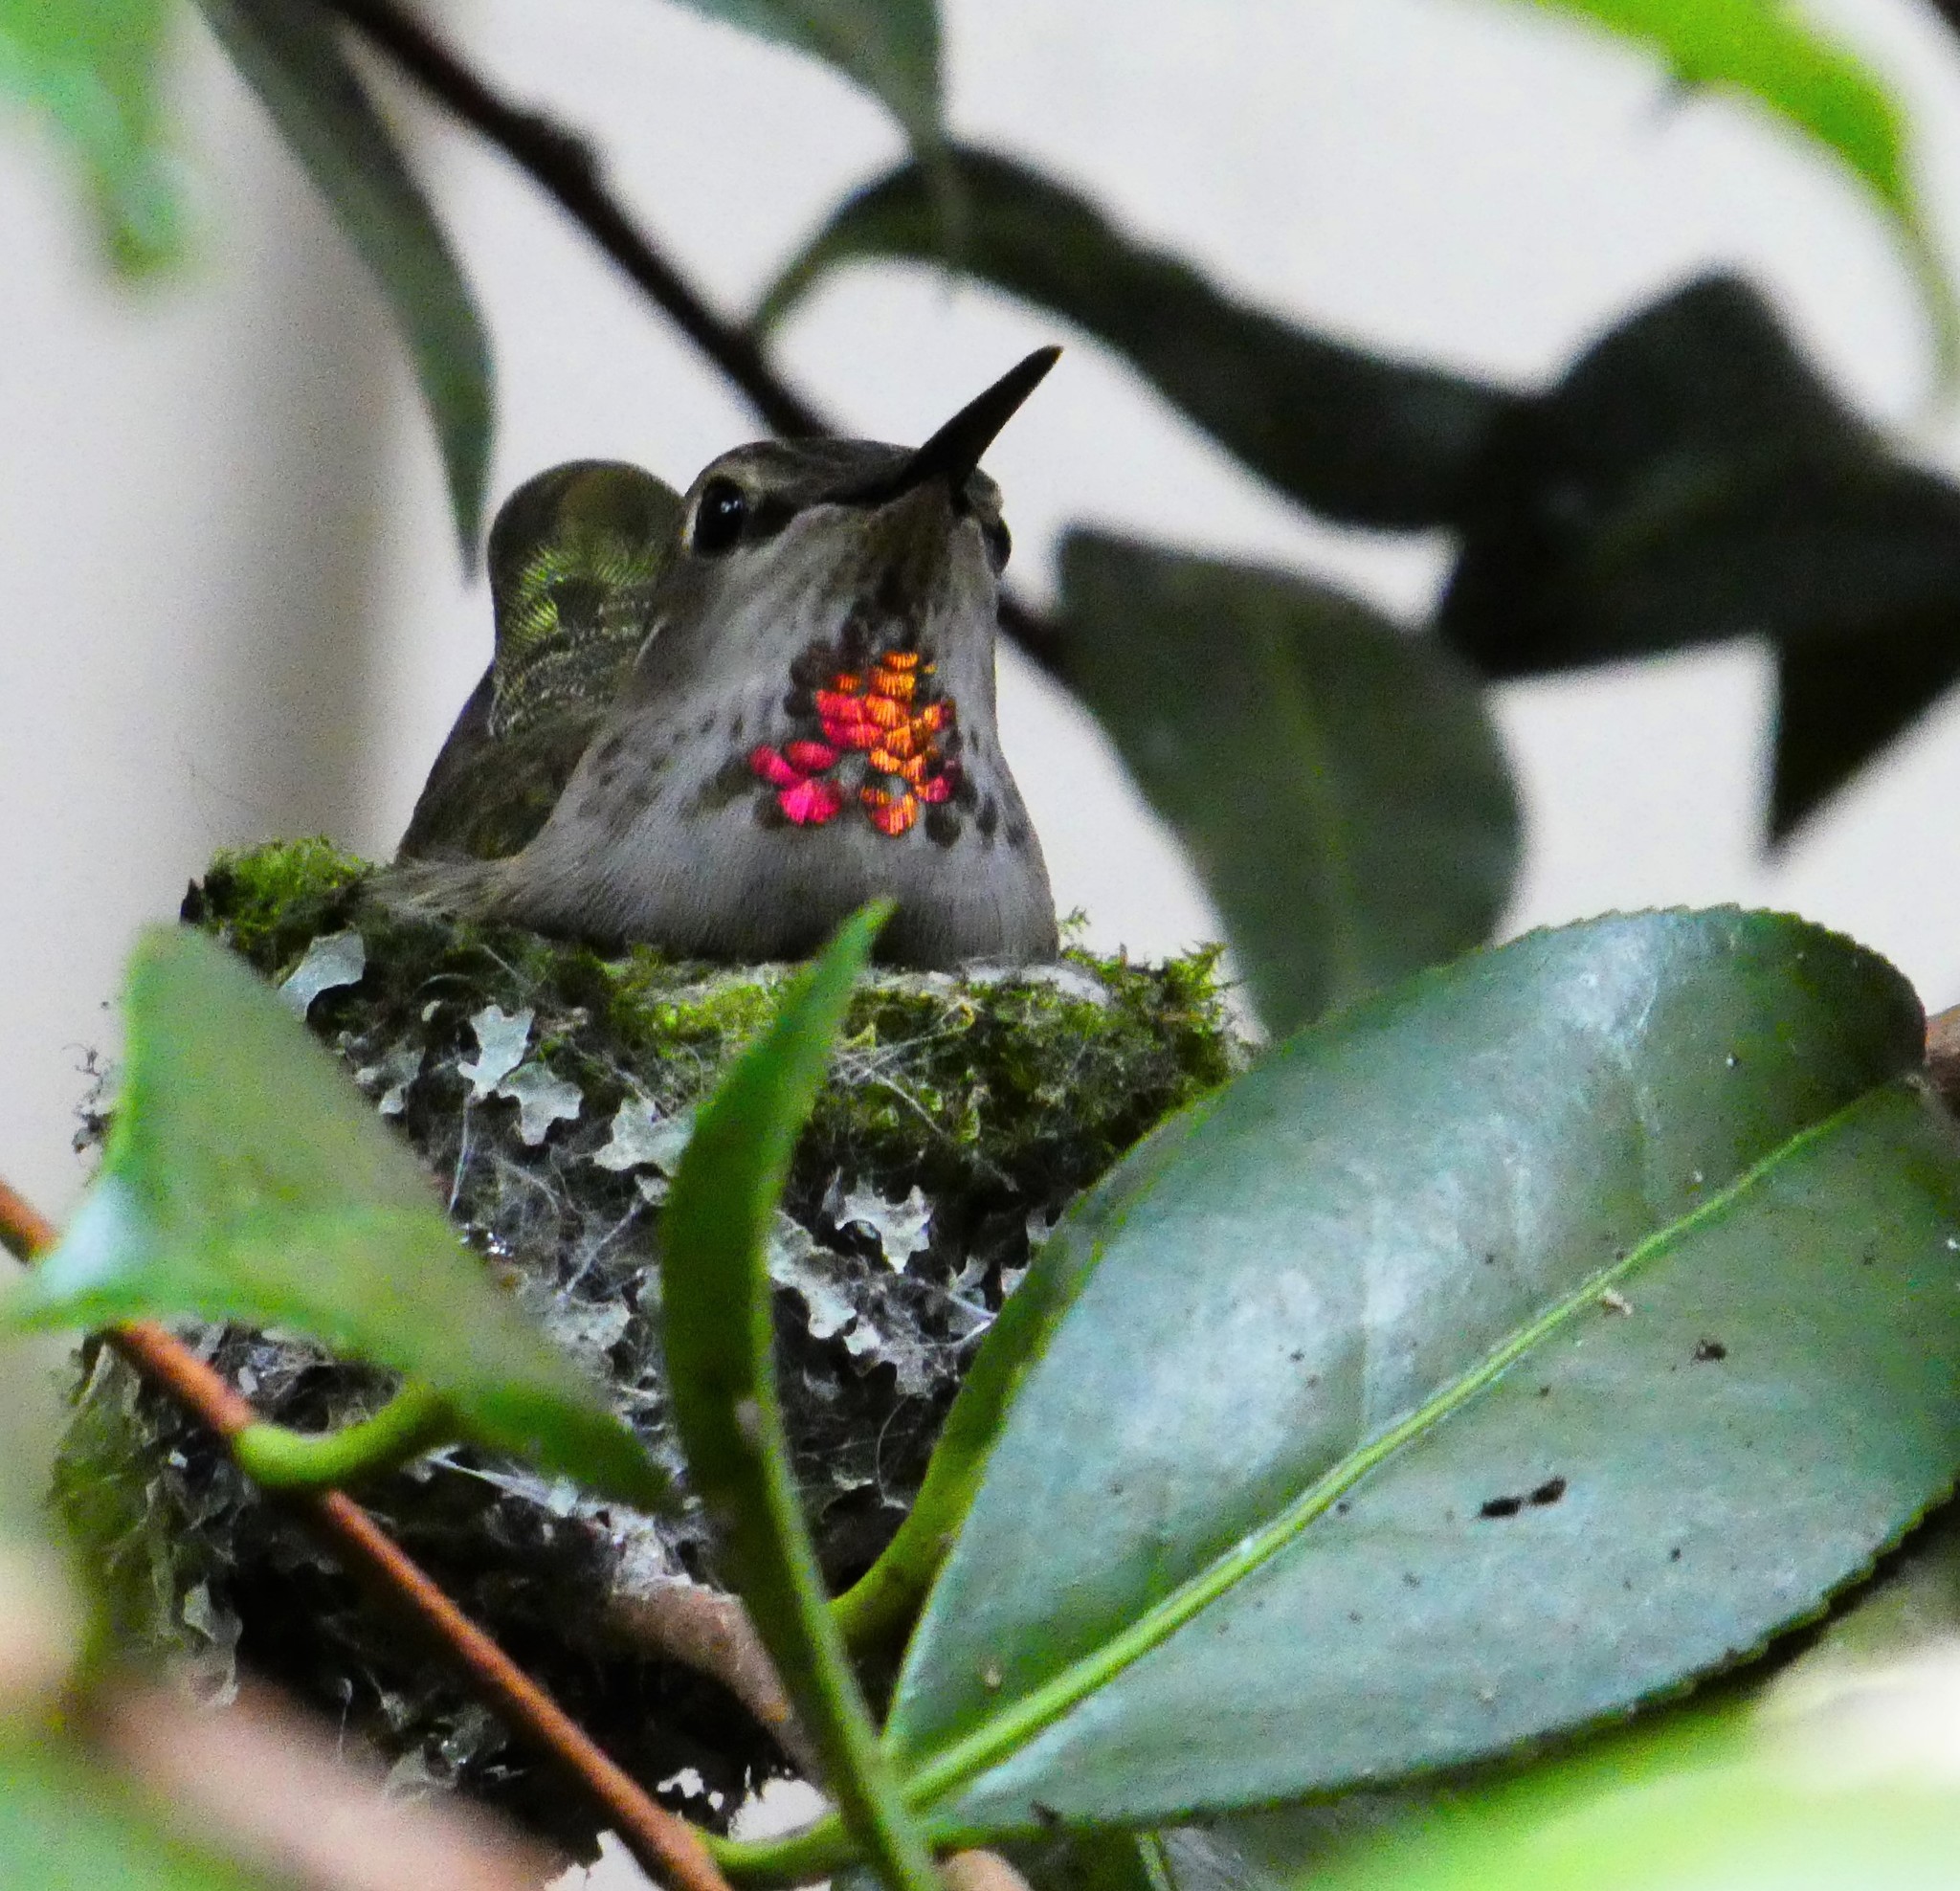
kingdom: Animalia
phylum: Chordata
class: Aves
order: Apodiformes
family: Trochilidae
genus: Calypte
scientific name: Calypte anna
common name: Anna's hummingbird
